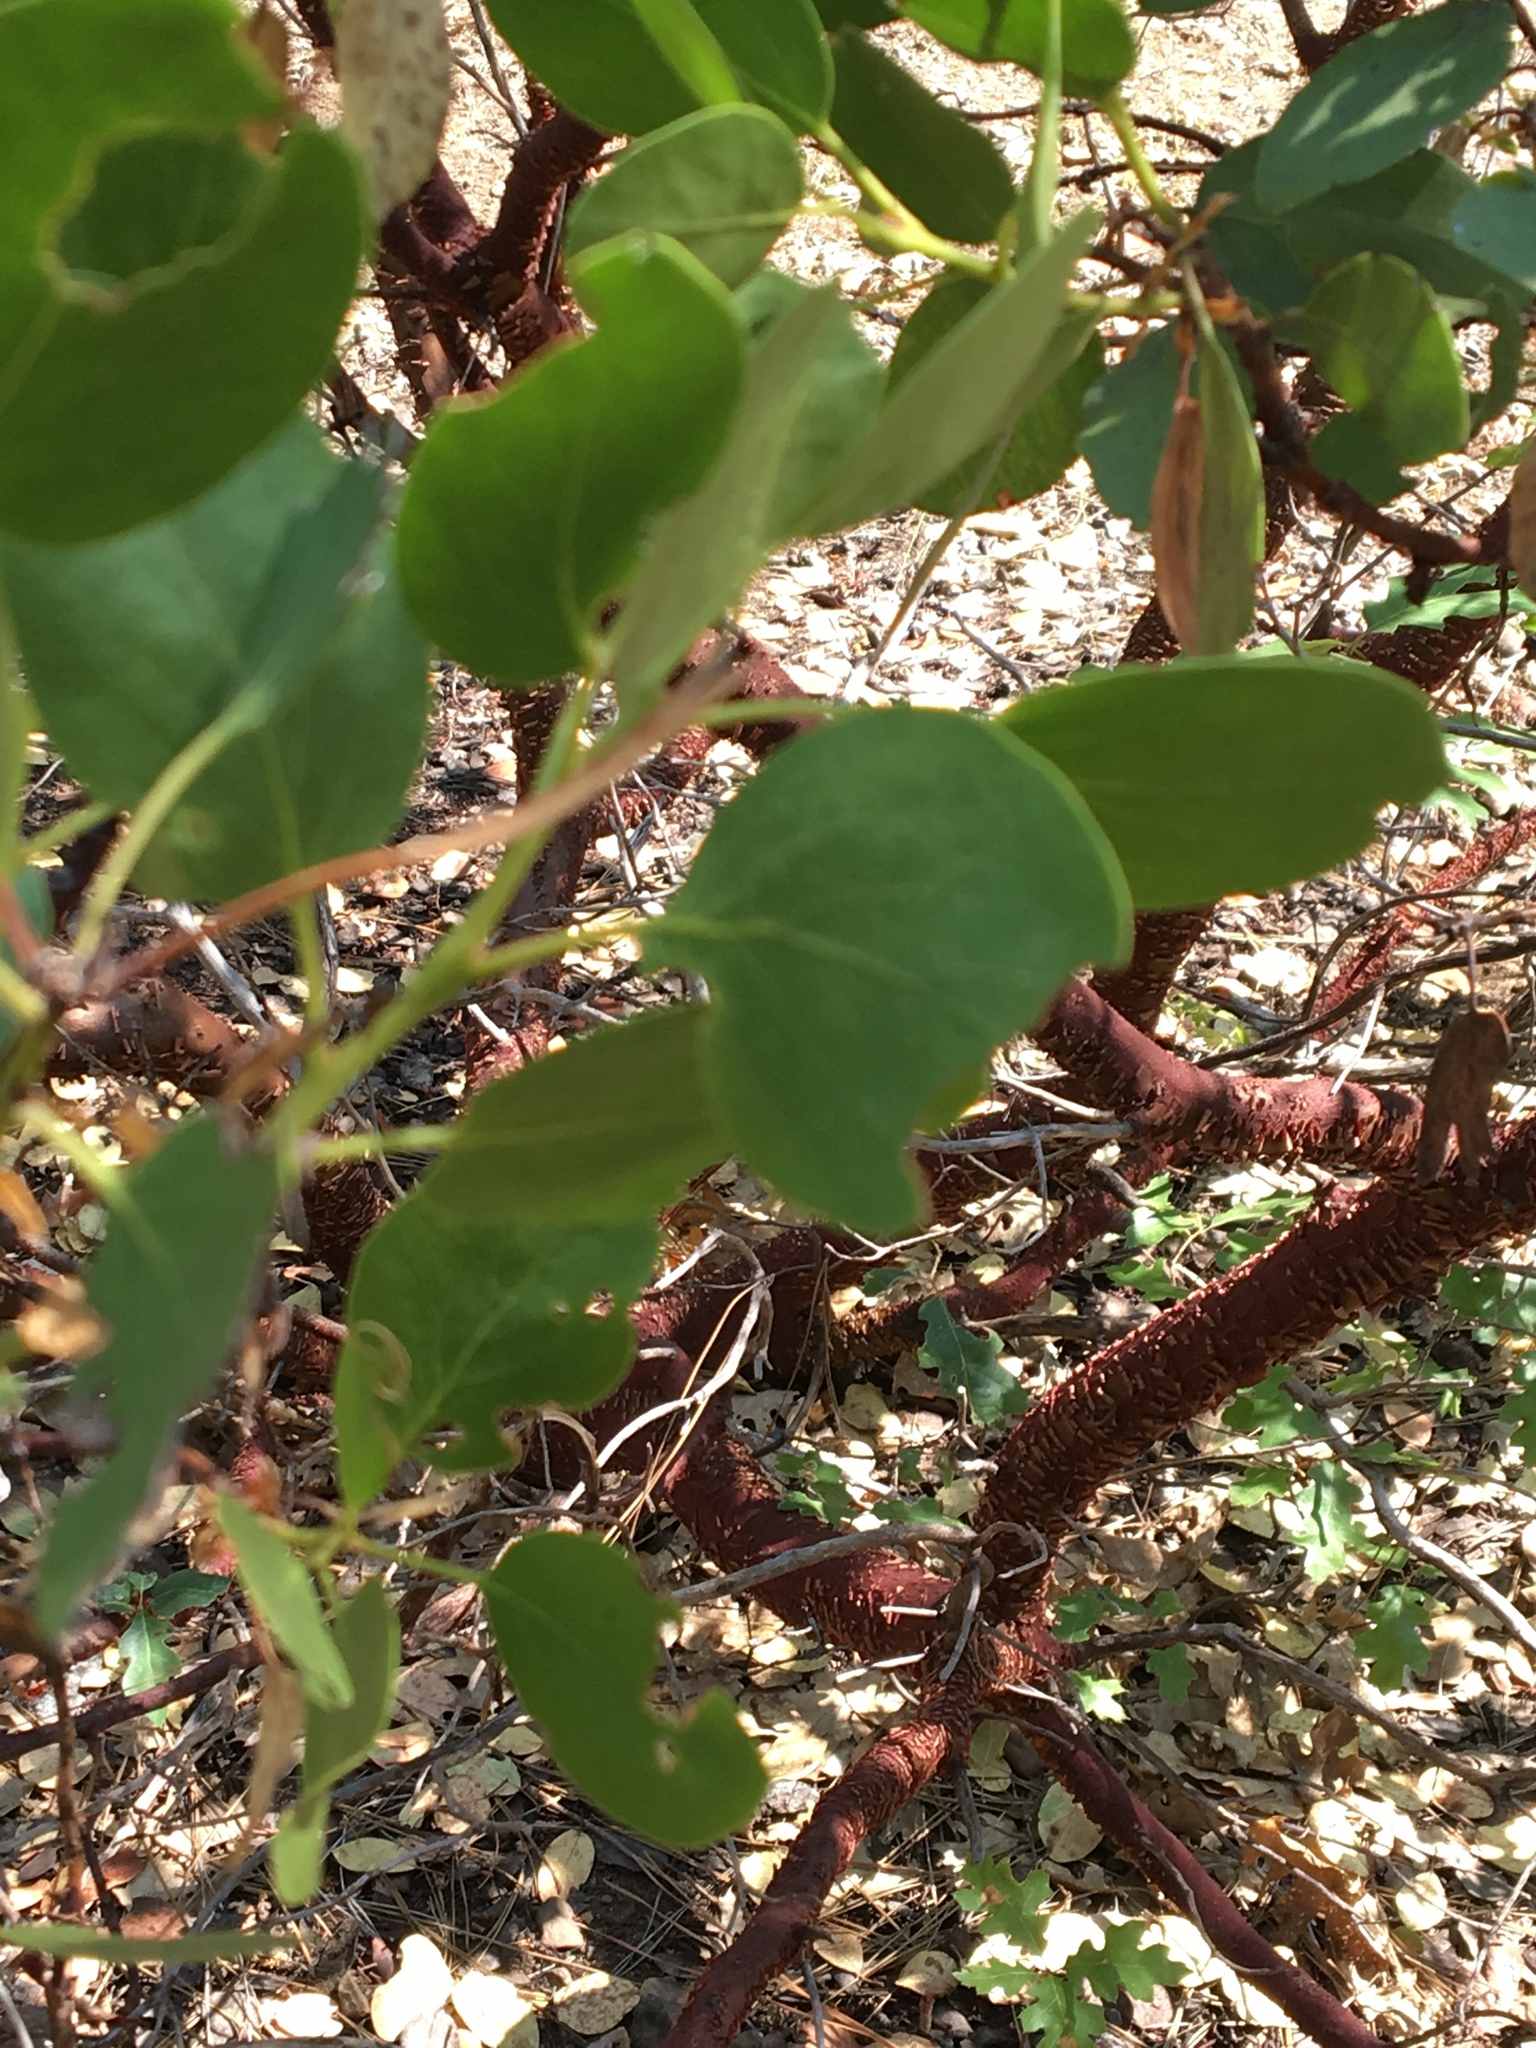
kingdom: Plantae
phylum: Tracheophyta
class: Magnoliopsida
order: Ericales
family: Ericaceae
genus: Arctostaphylos
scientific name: Arctostaphylos patula
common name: Green-leaf manzanita
